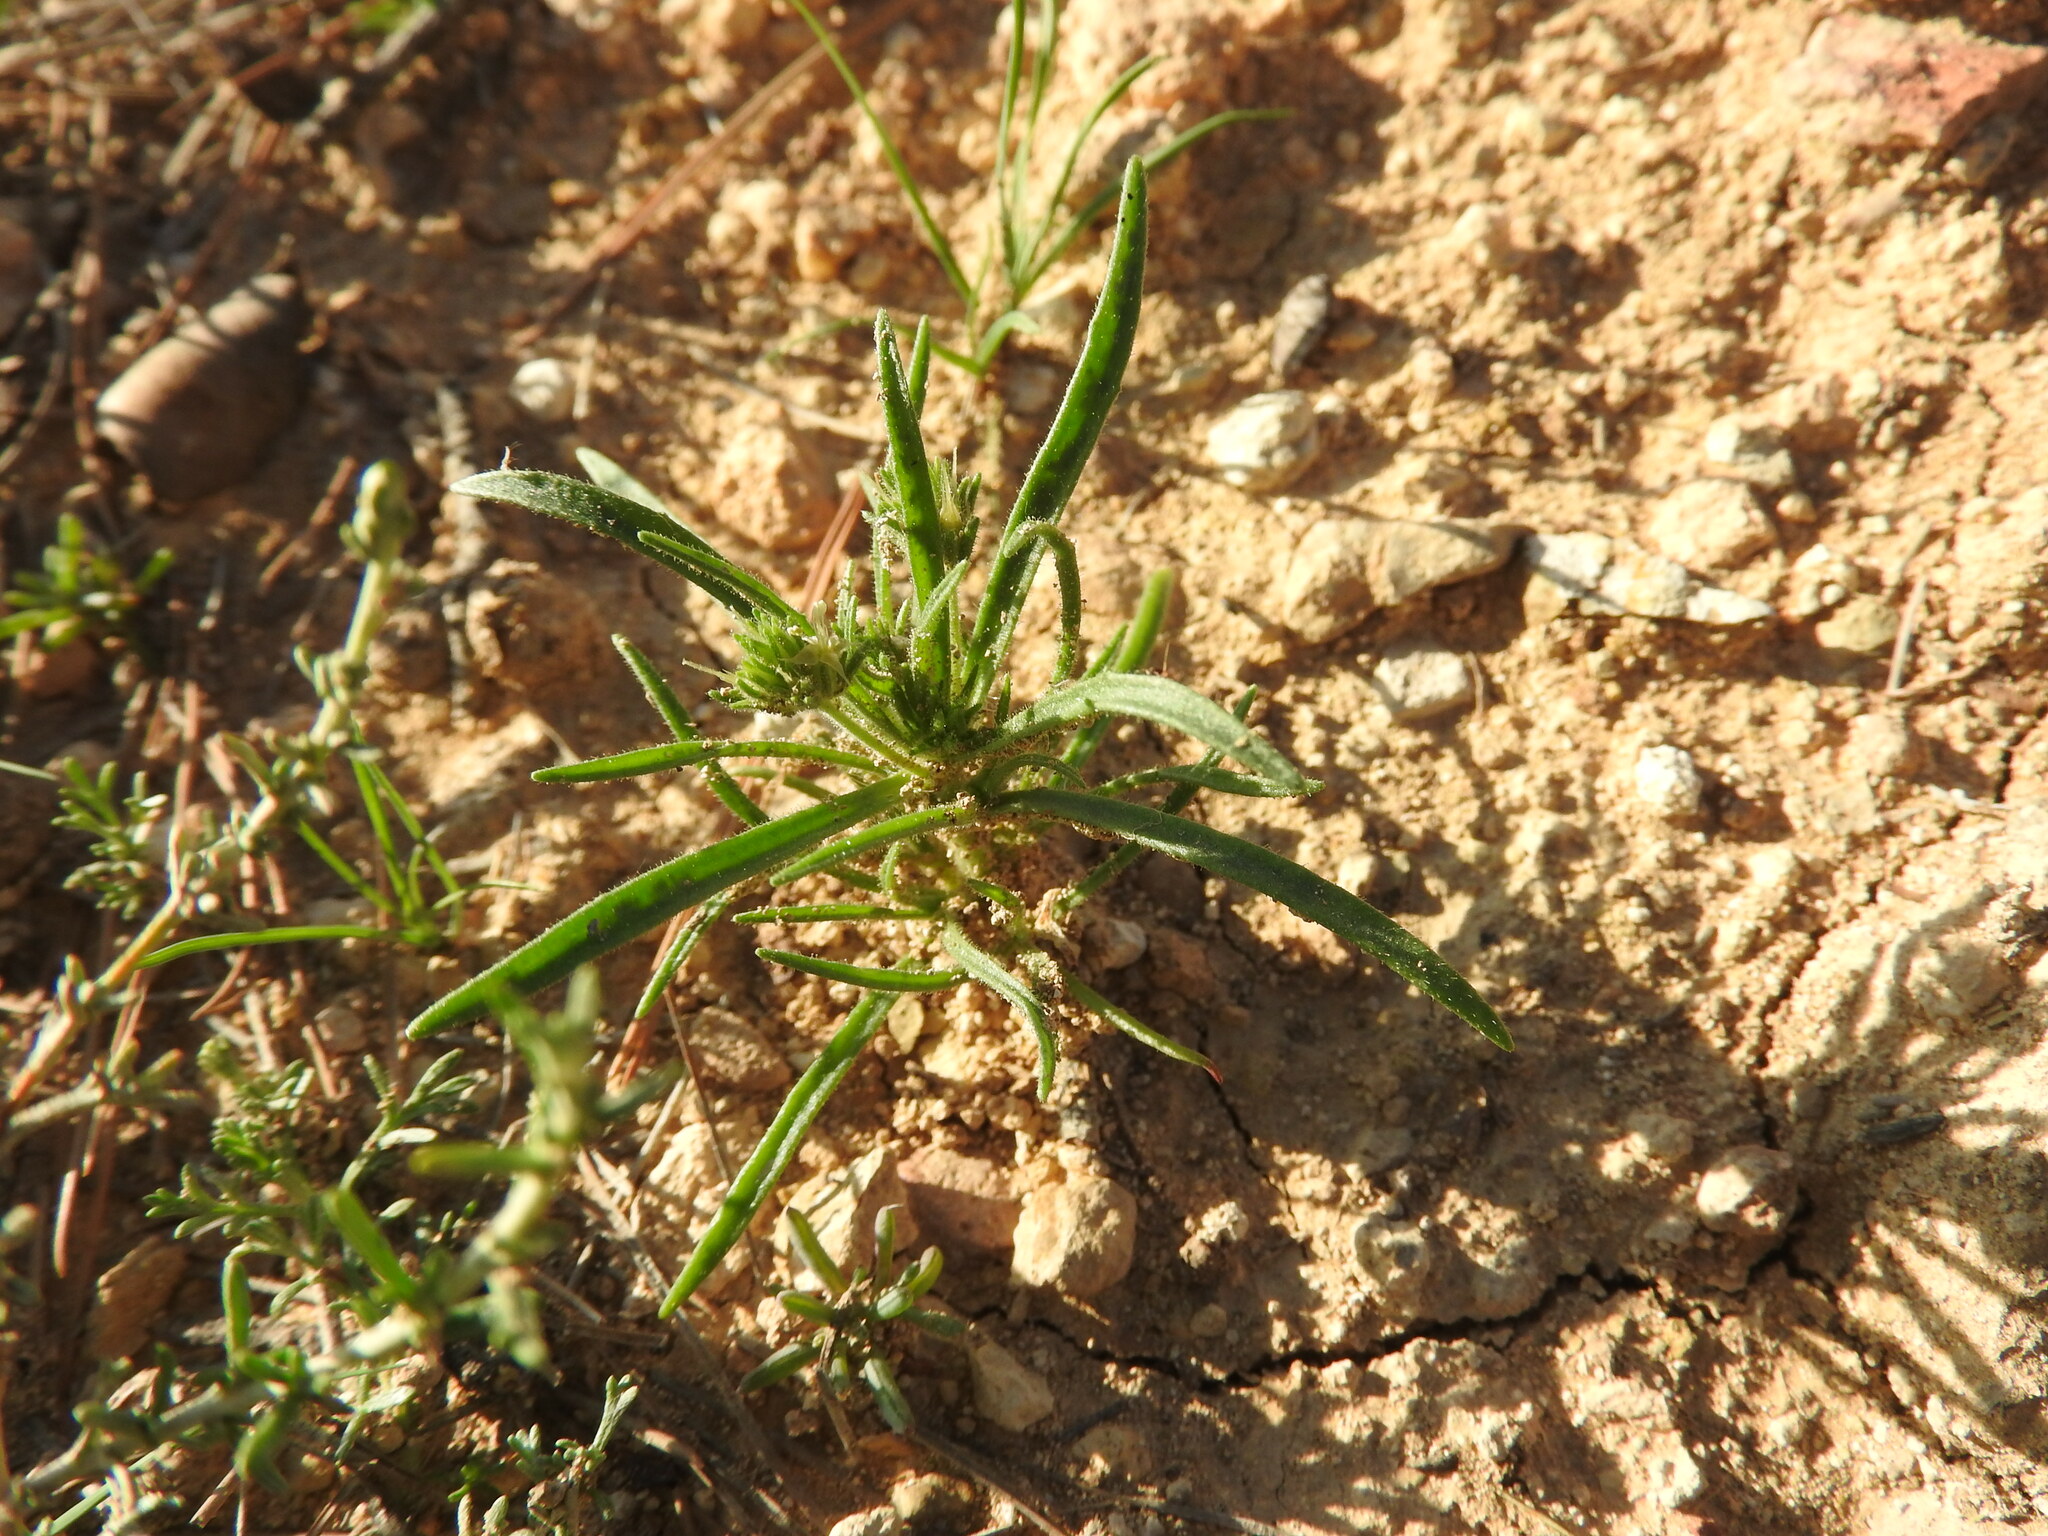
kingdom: Plantae
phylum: Tracheophyta
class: Magnoliopsida
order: Lamiales
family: Plantaginaceae
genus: Plantago
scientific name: Plantago afra
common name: Glandular plantain
